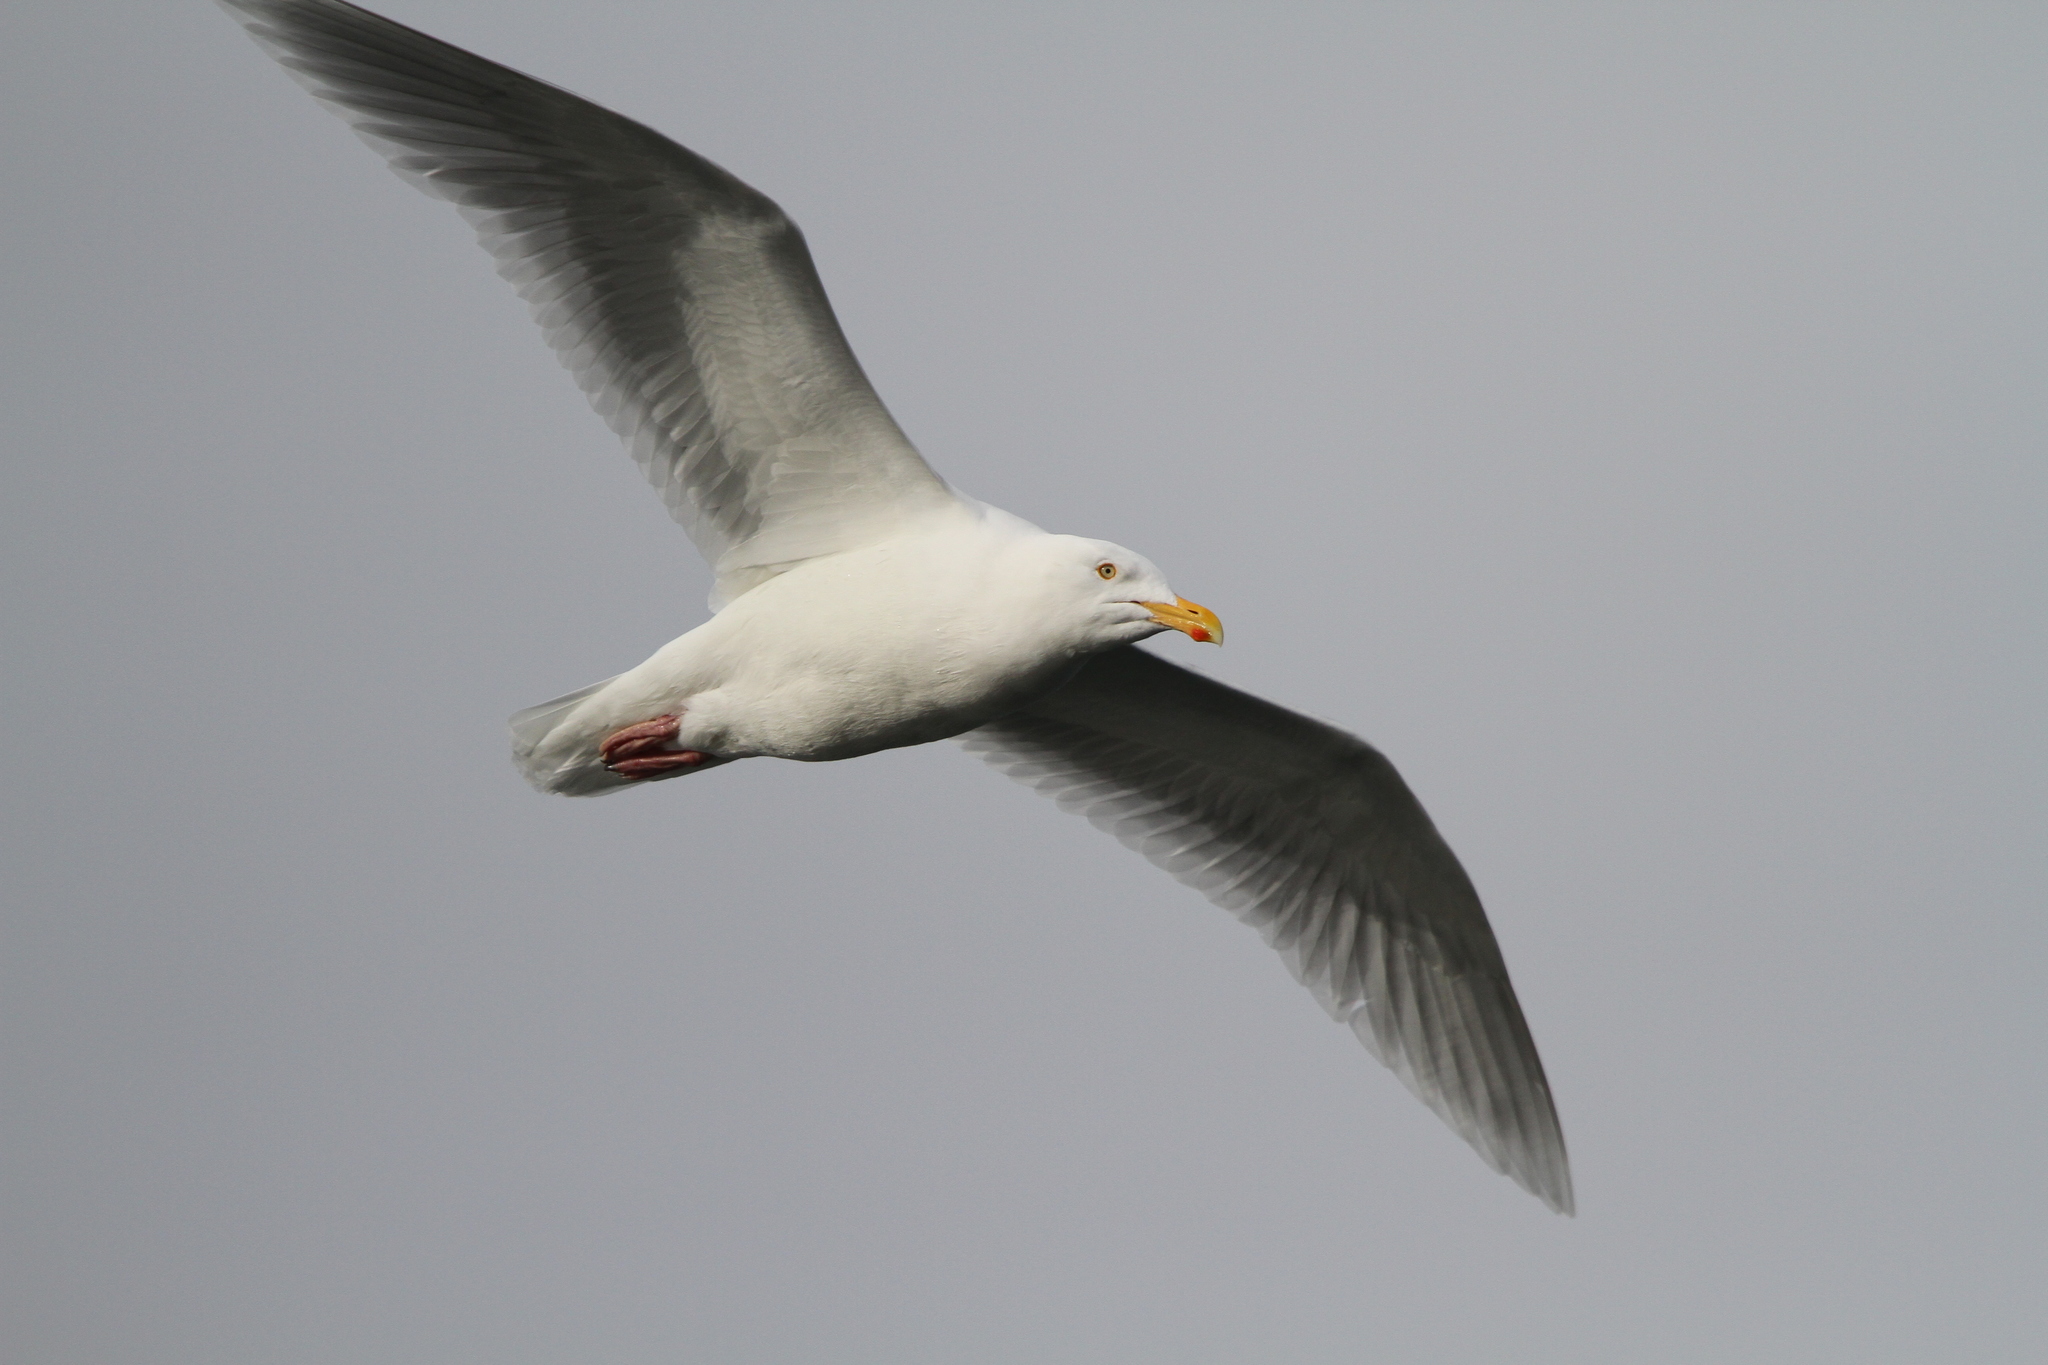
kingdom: Animalia
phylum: Chordata
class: Aves
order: Charadriiformes
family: Laridae
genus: Larus
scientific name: Larus hyperboreus
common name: Glaucous gull
